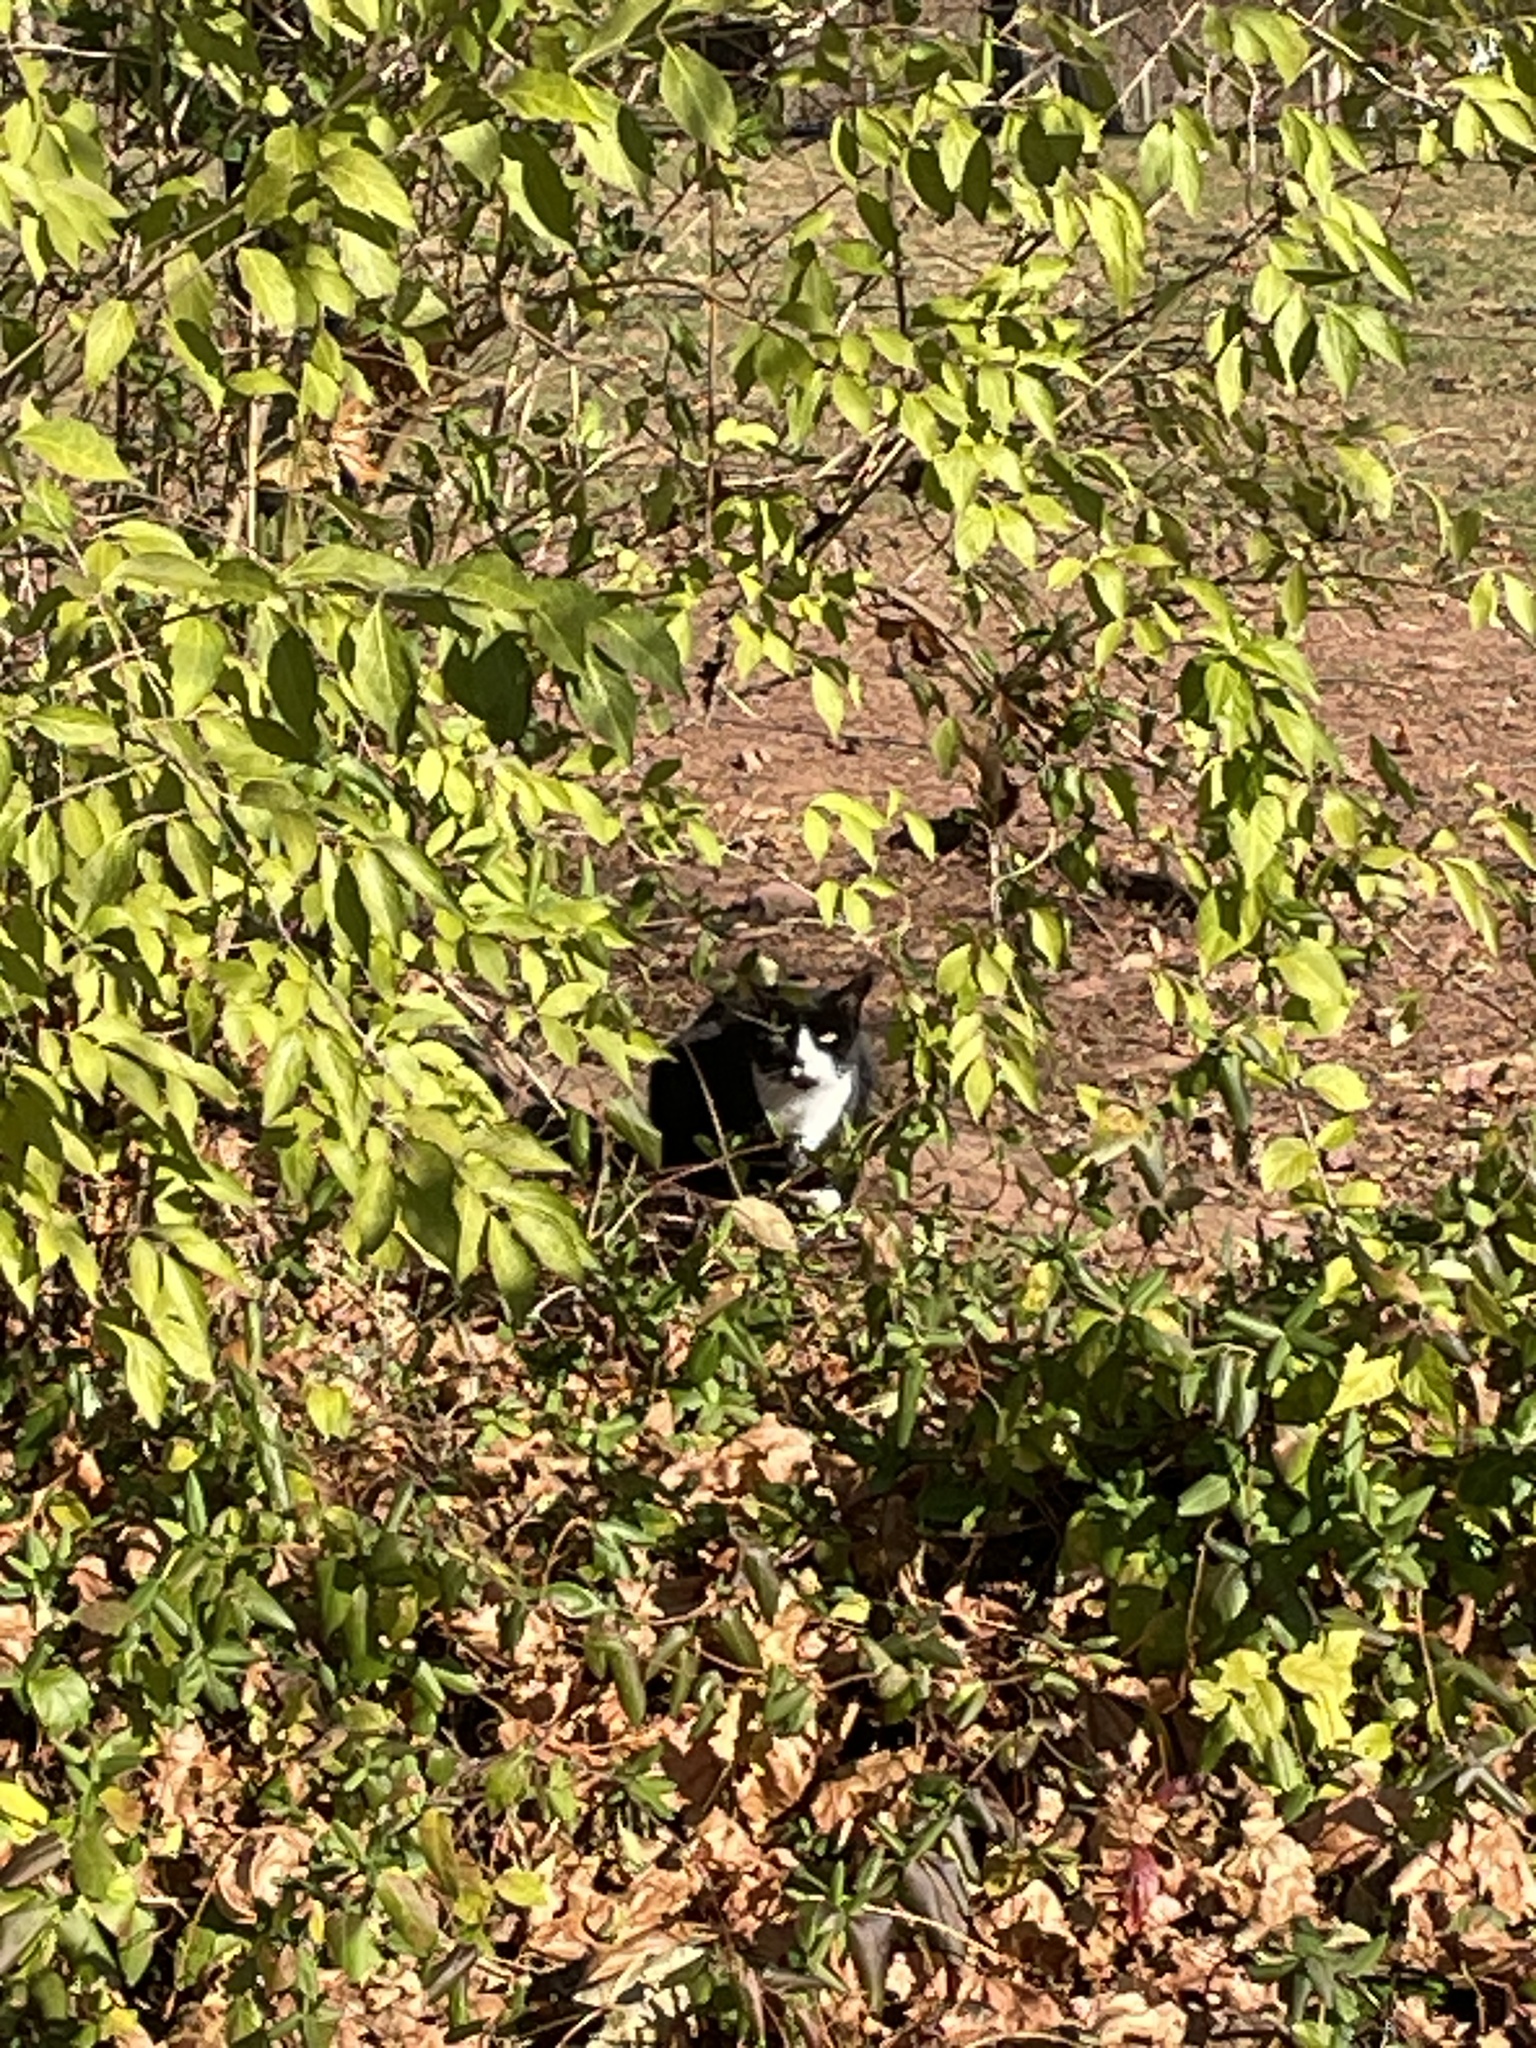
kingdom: Animalia
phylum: Chordata
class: Mammalia
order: Carnivora
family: Felidae
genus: Felis
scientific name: Felis catus
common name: Domestic cat
